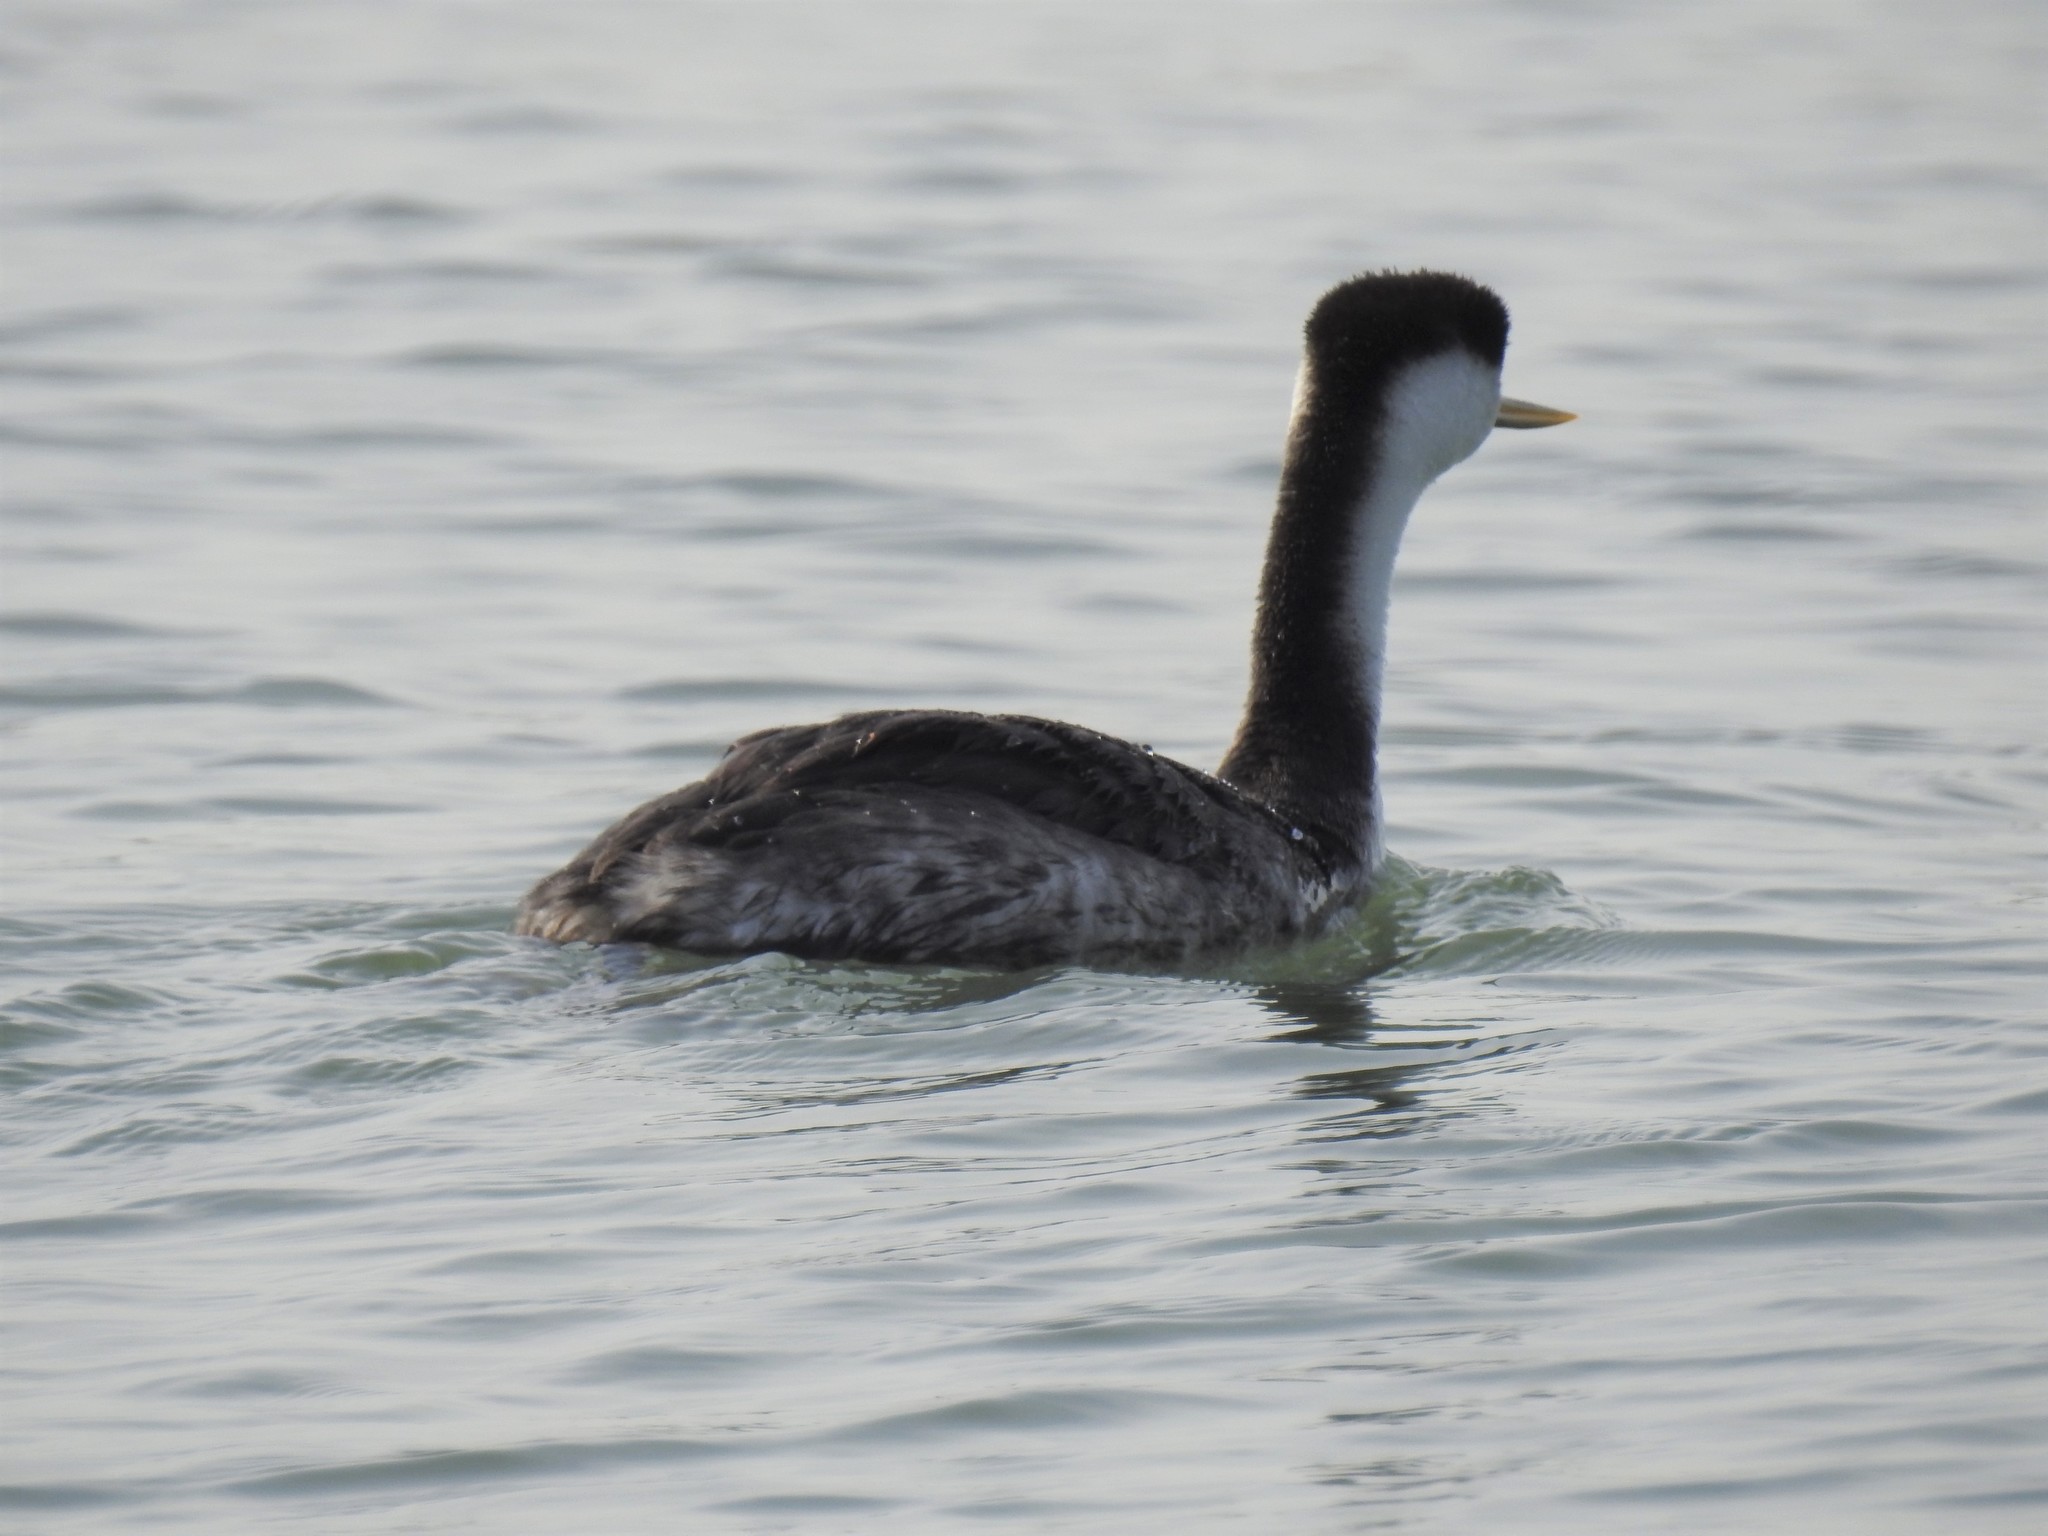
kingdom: Animalia
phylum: Chordata
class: Aves
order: Podicipediformes
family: Podicipedidae
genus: Aechmophorus
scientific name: Aechmophorus occidentalis
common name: Western grebe
